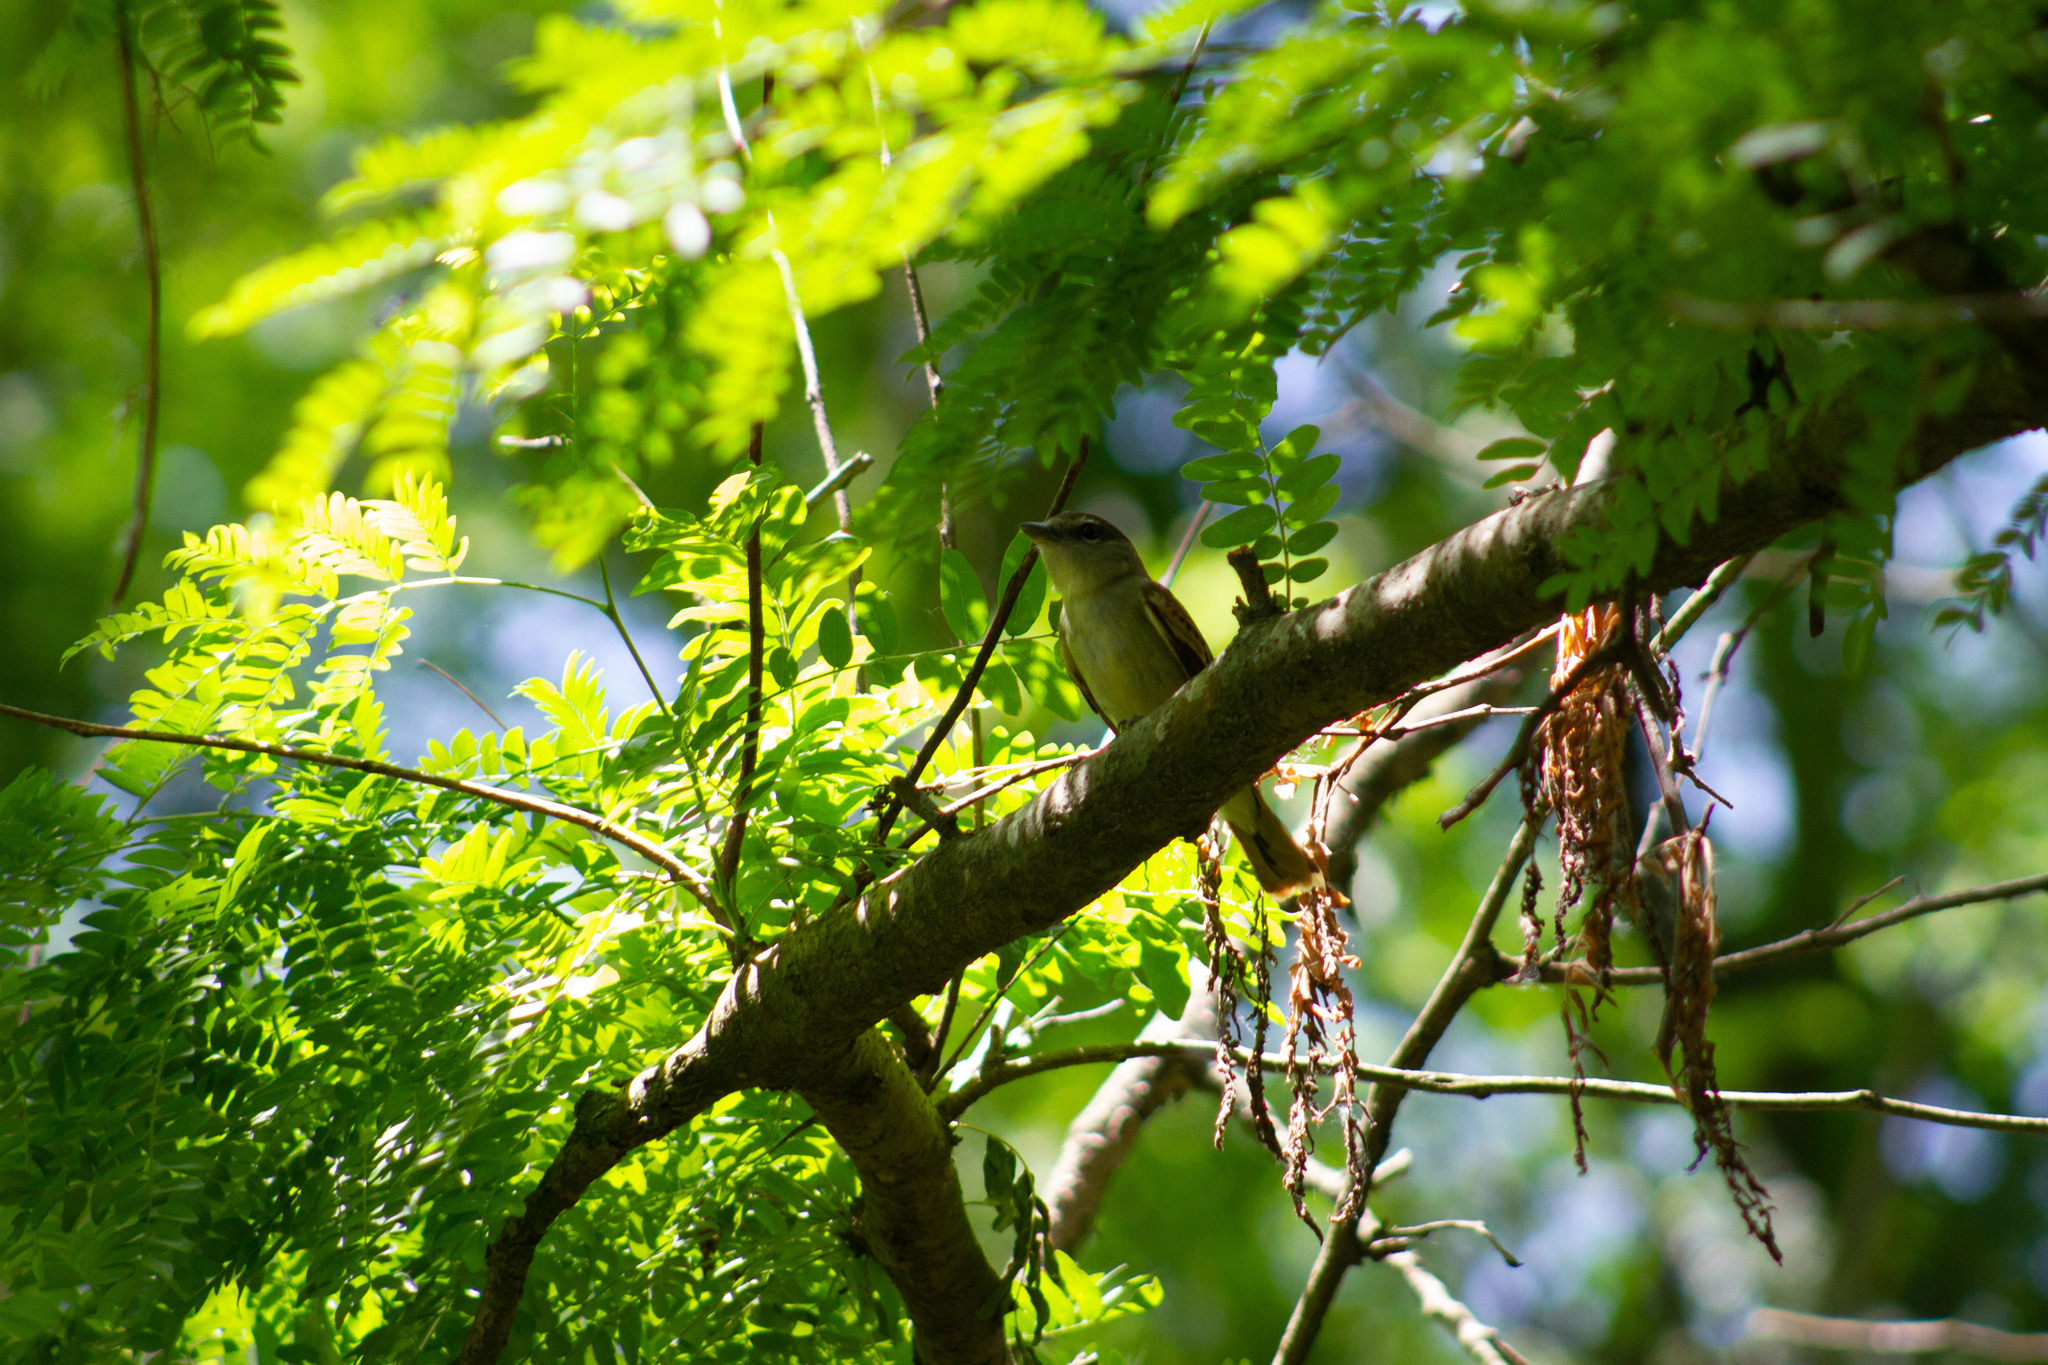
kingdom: Animalia
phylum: Chordata
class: Aves
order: Passeriformes
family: Cotingidae
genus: Pachyramphus
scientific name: Pachyramphus polychopterus
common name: White-winged becard
